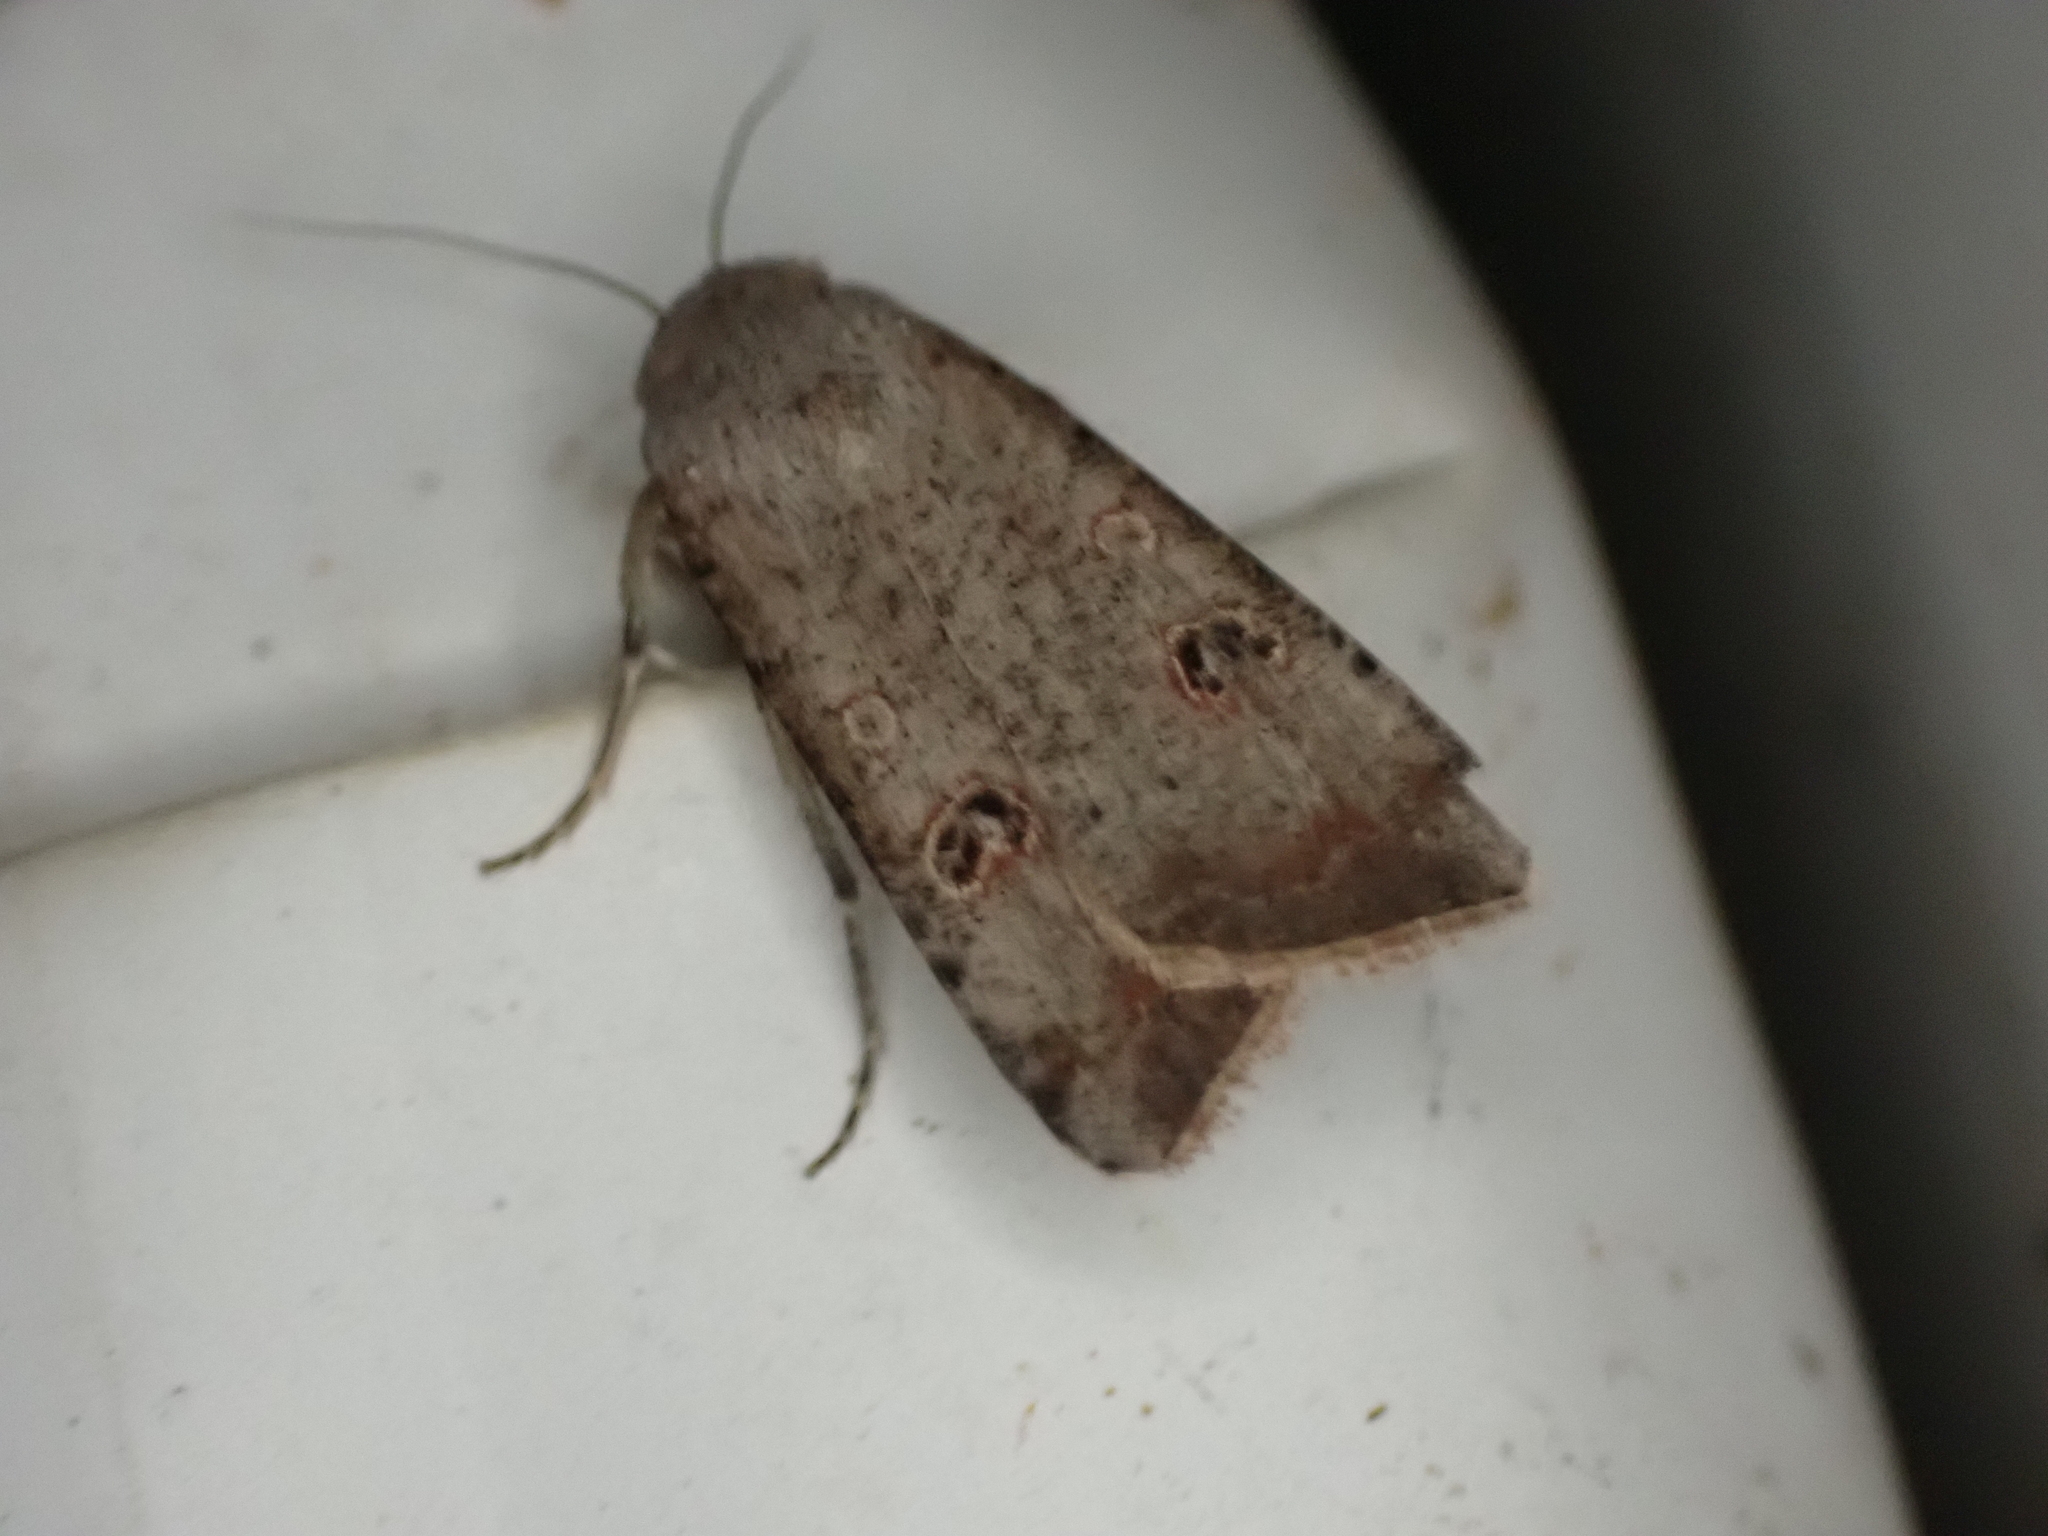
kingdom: Animalia
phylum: Arthropoda
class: Insecta
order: Lepidoptera
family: Noctuidae
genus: Anicla
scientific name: Anicla infecta
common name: Green cutworm
